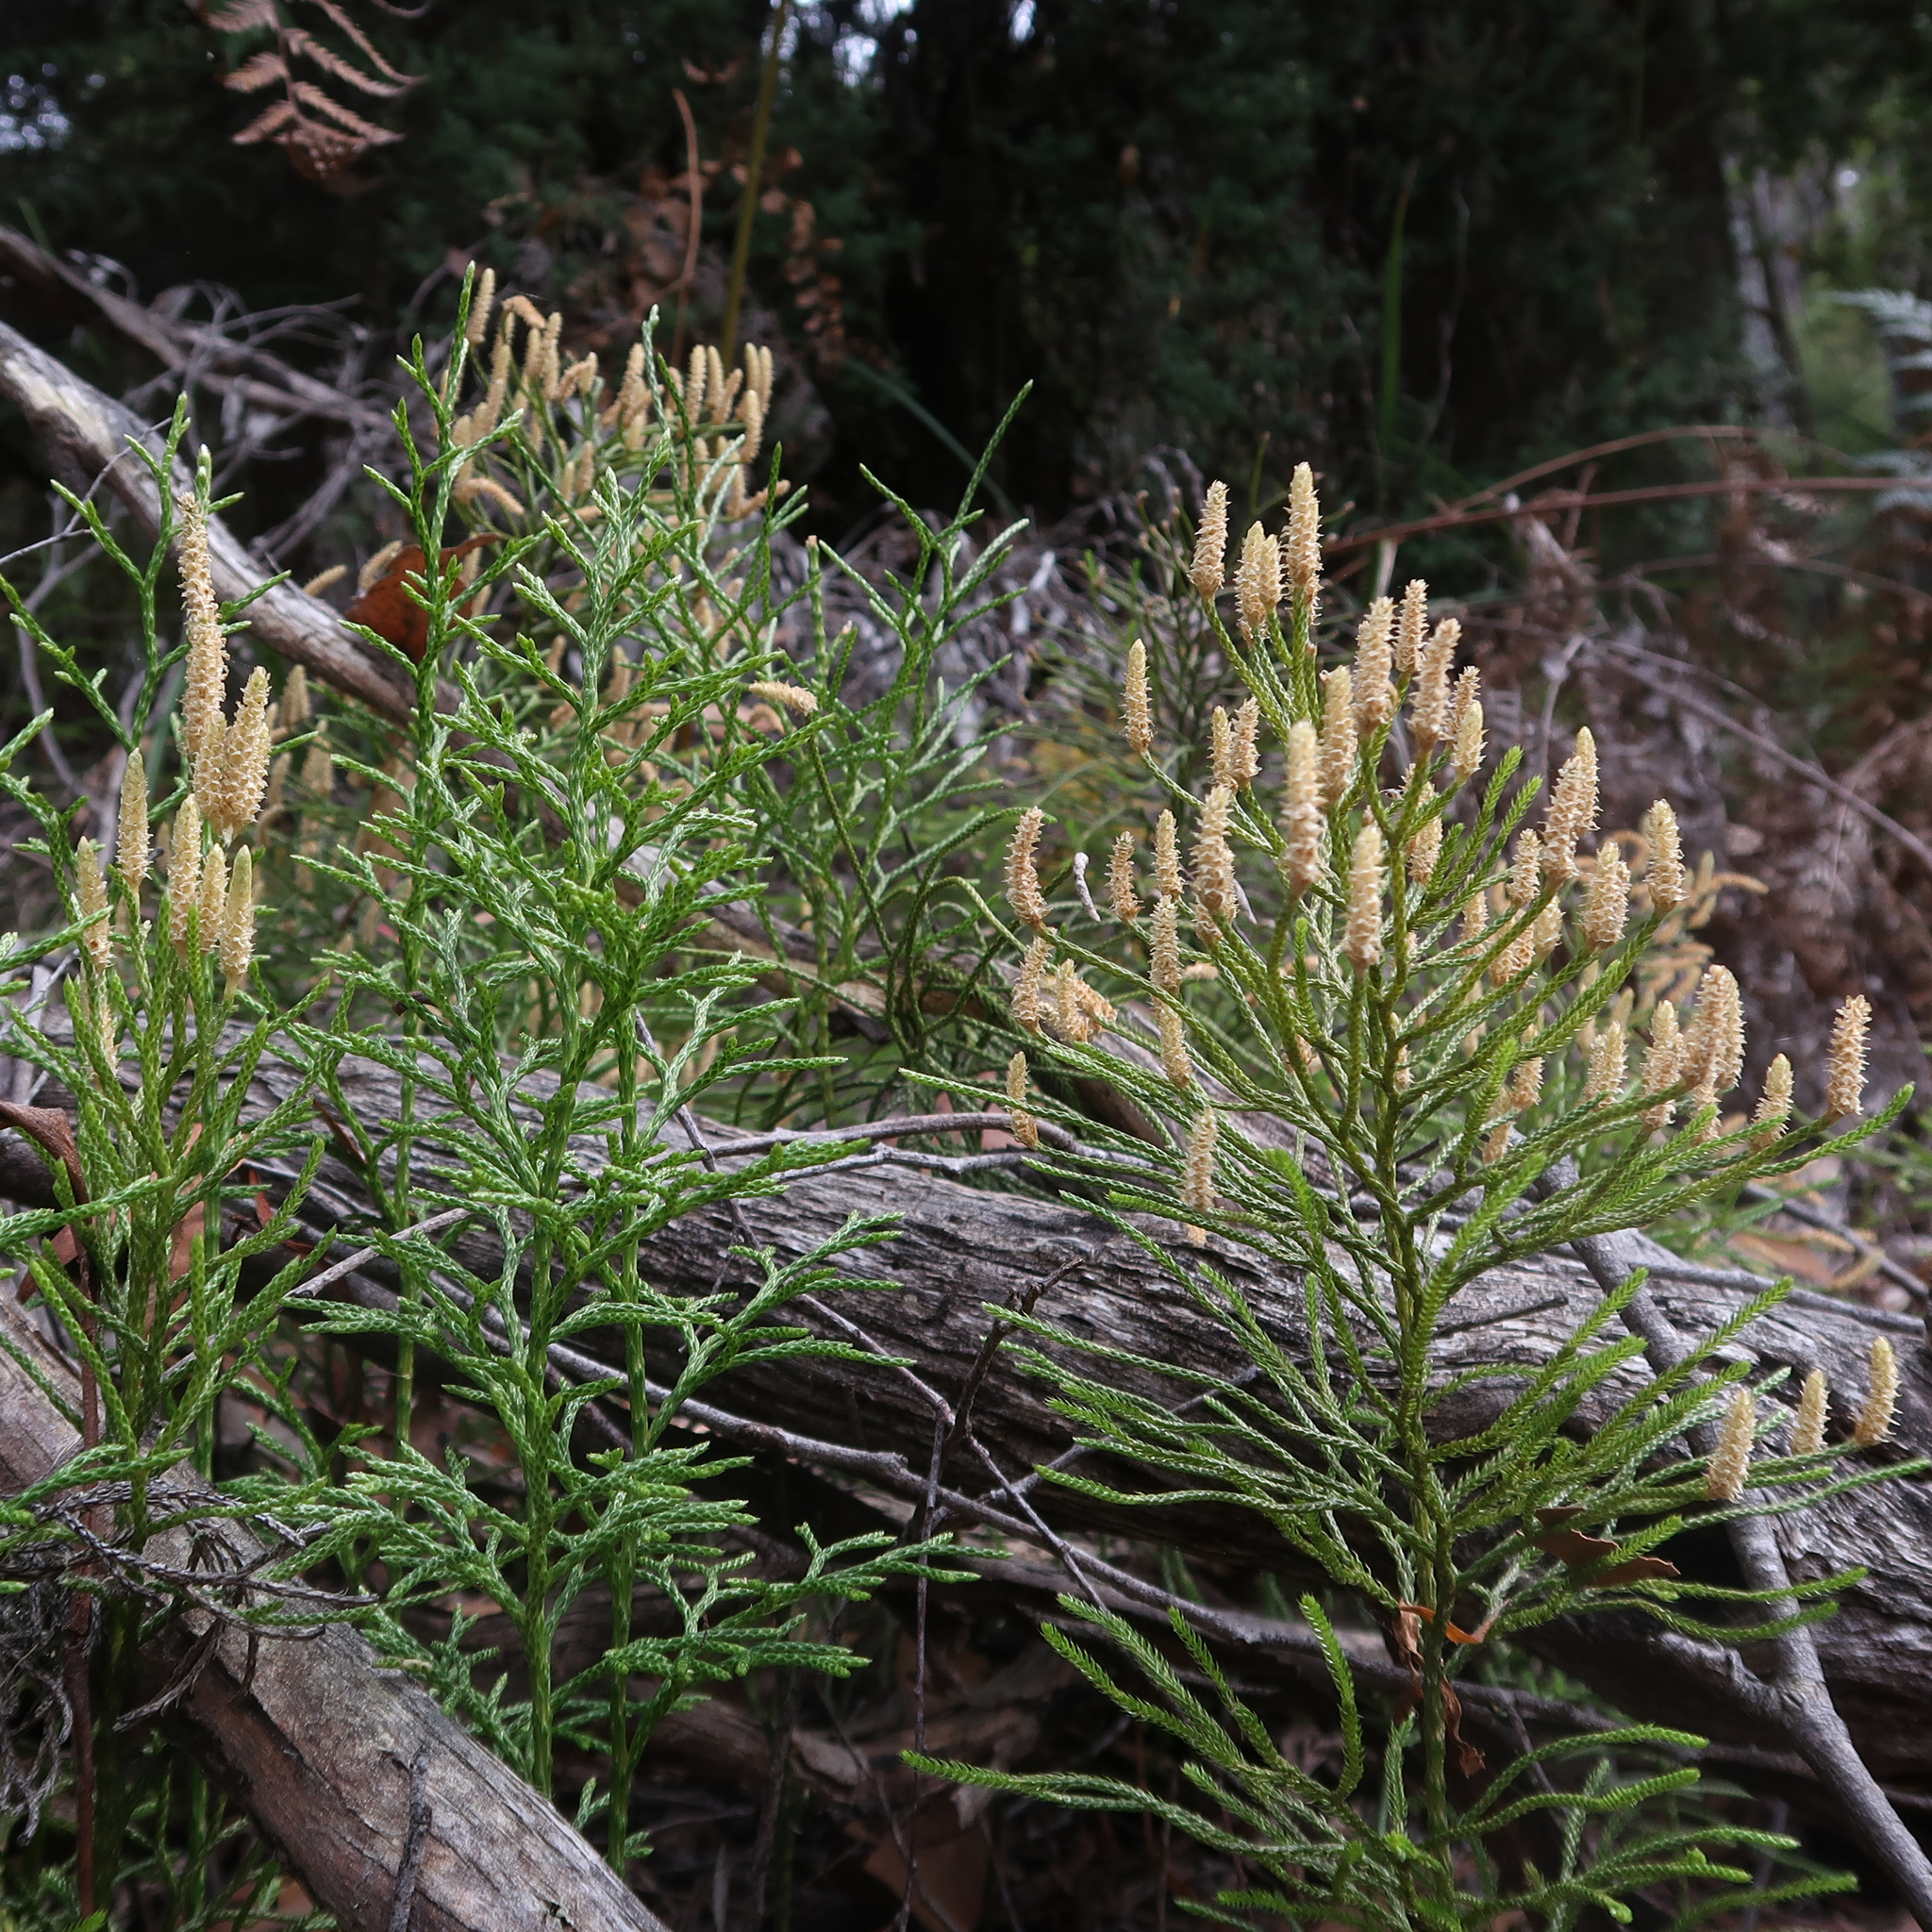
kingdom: Plantae
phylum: Tracheophyta
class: Lycopodiopsida
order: Lycopodiales
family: Lycopodiaceae
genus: Pseudolycopodium
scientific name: Pseudolycopodium densum
